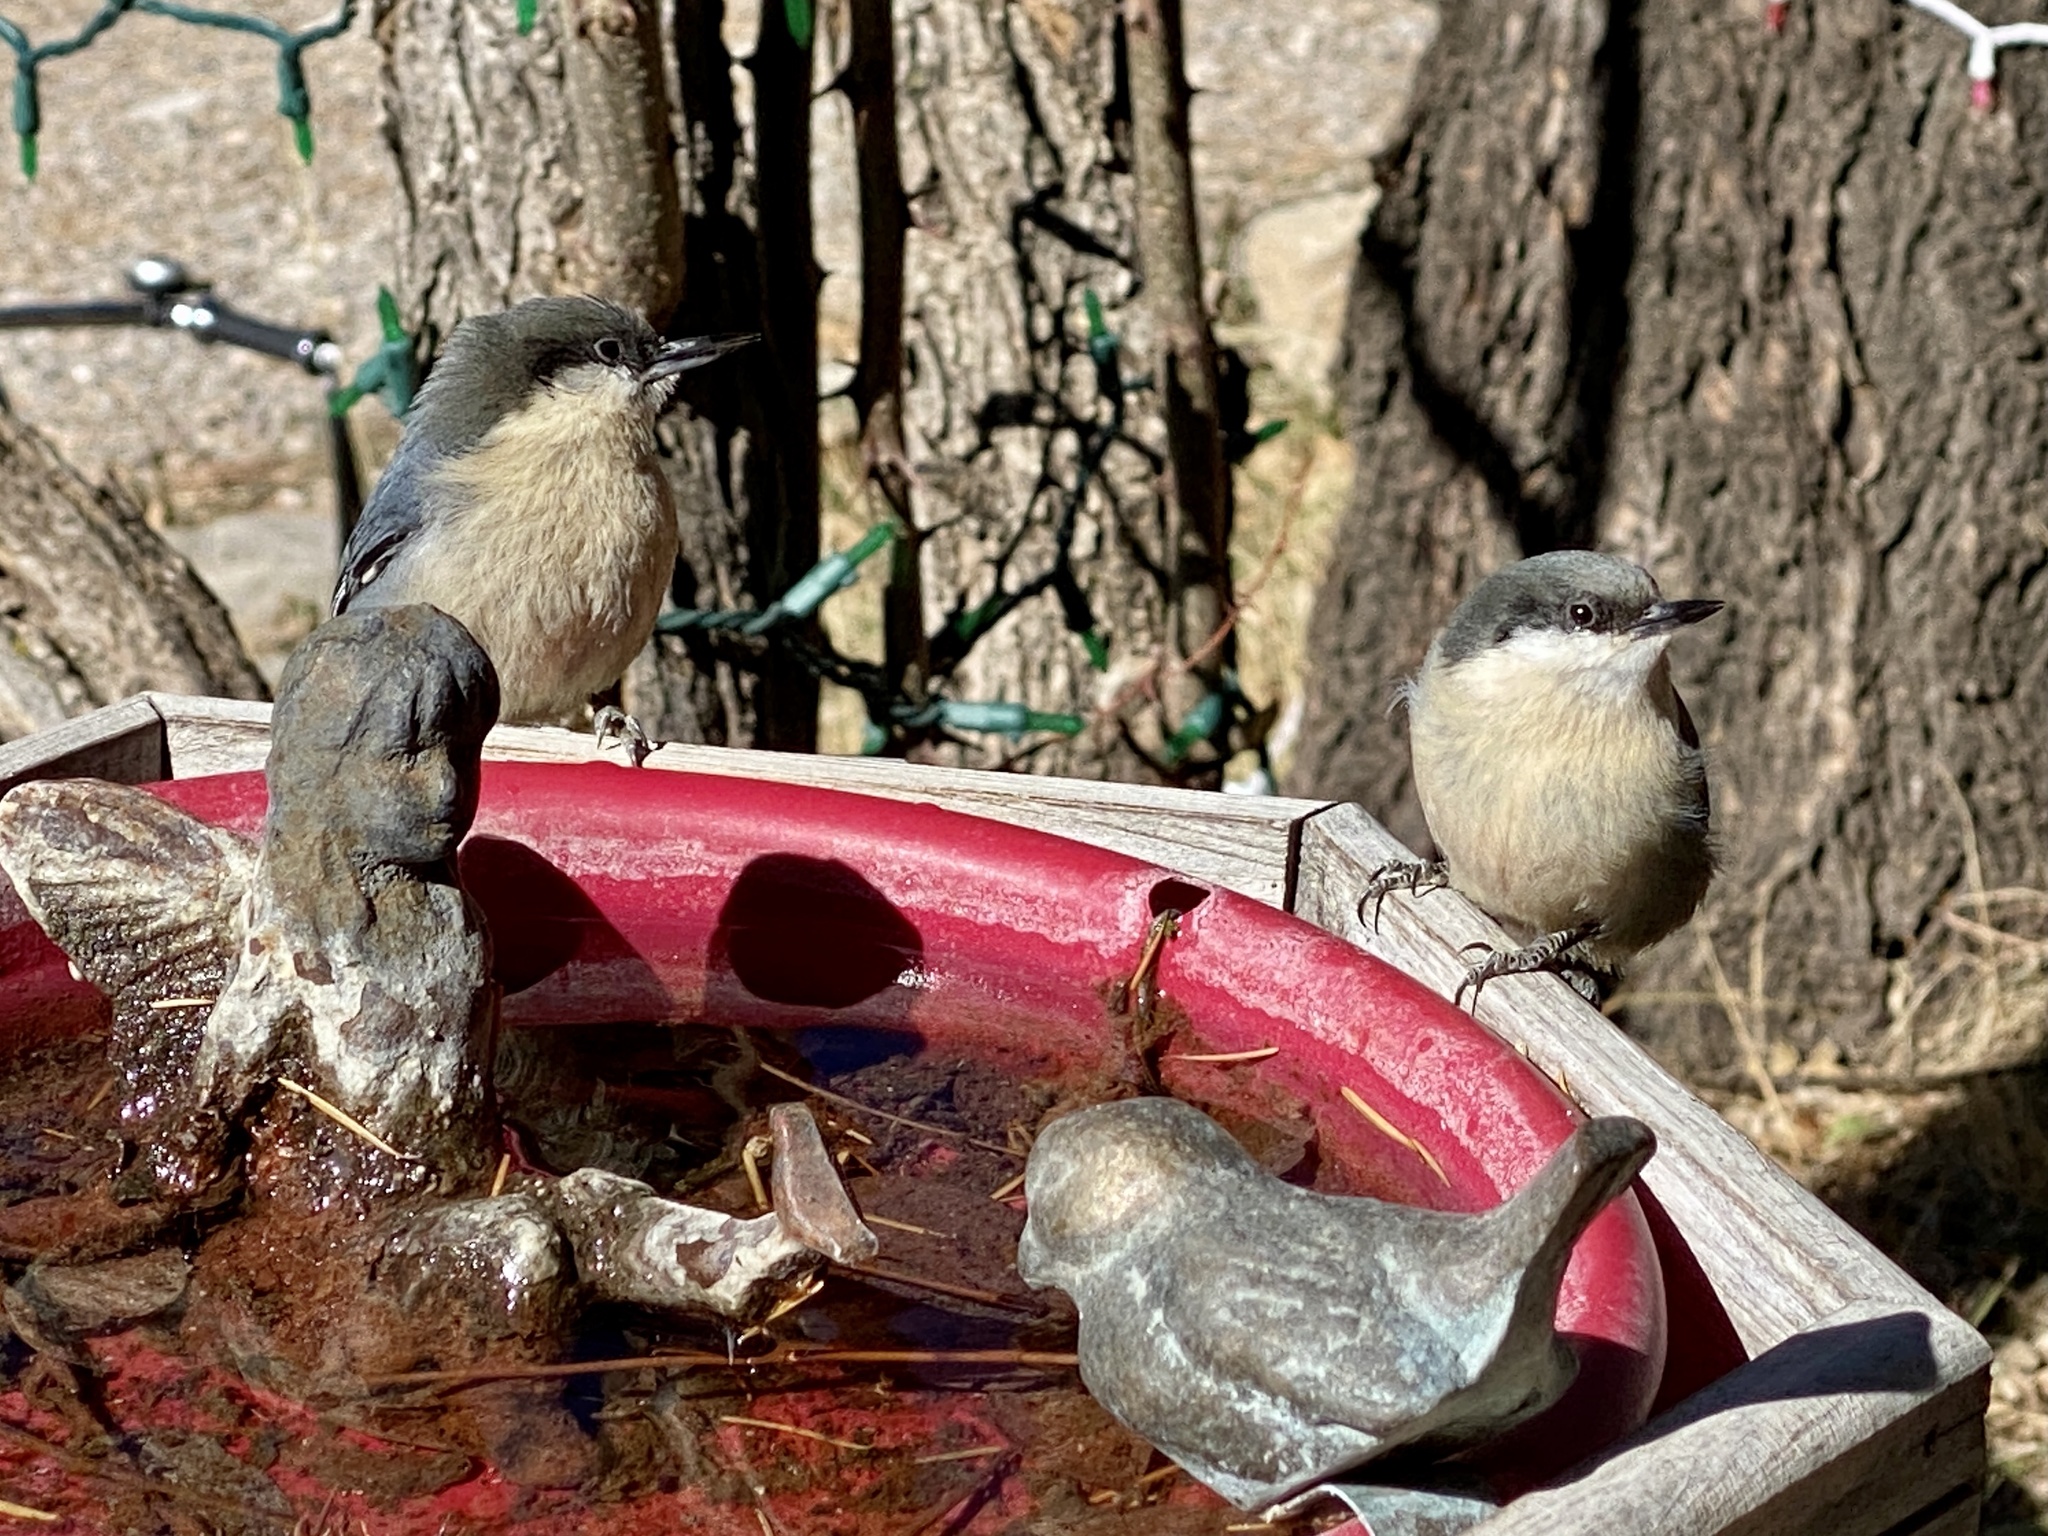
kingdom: Animalia
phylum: Chordata
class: Aves
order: Passeriformes
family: Sittidae
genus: Sitta
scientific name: Sitta pygmaea
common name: Pygmy nuthatch
